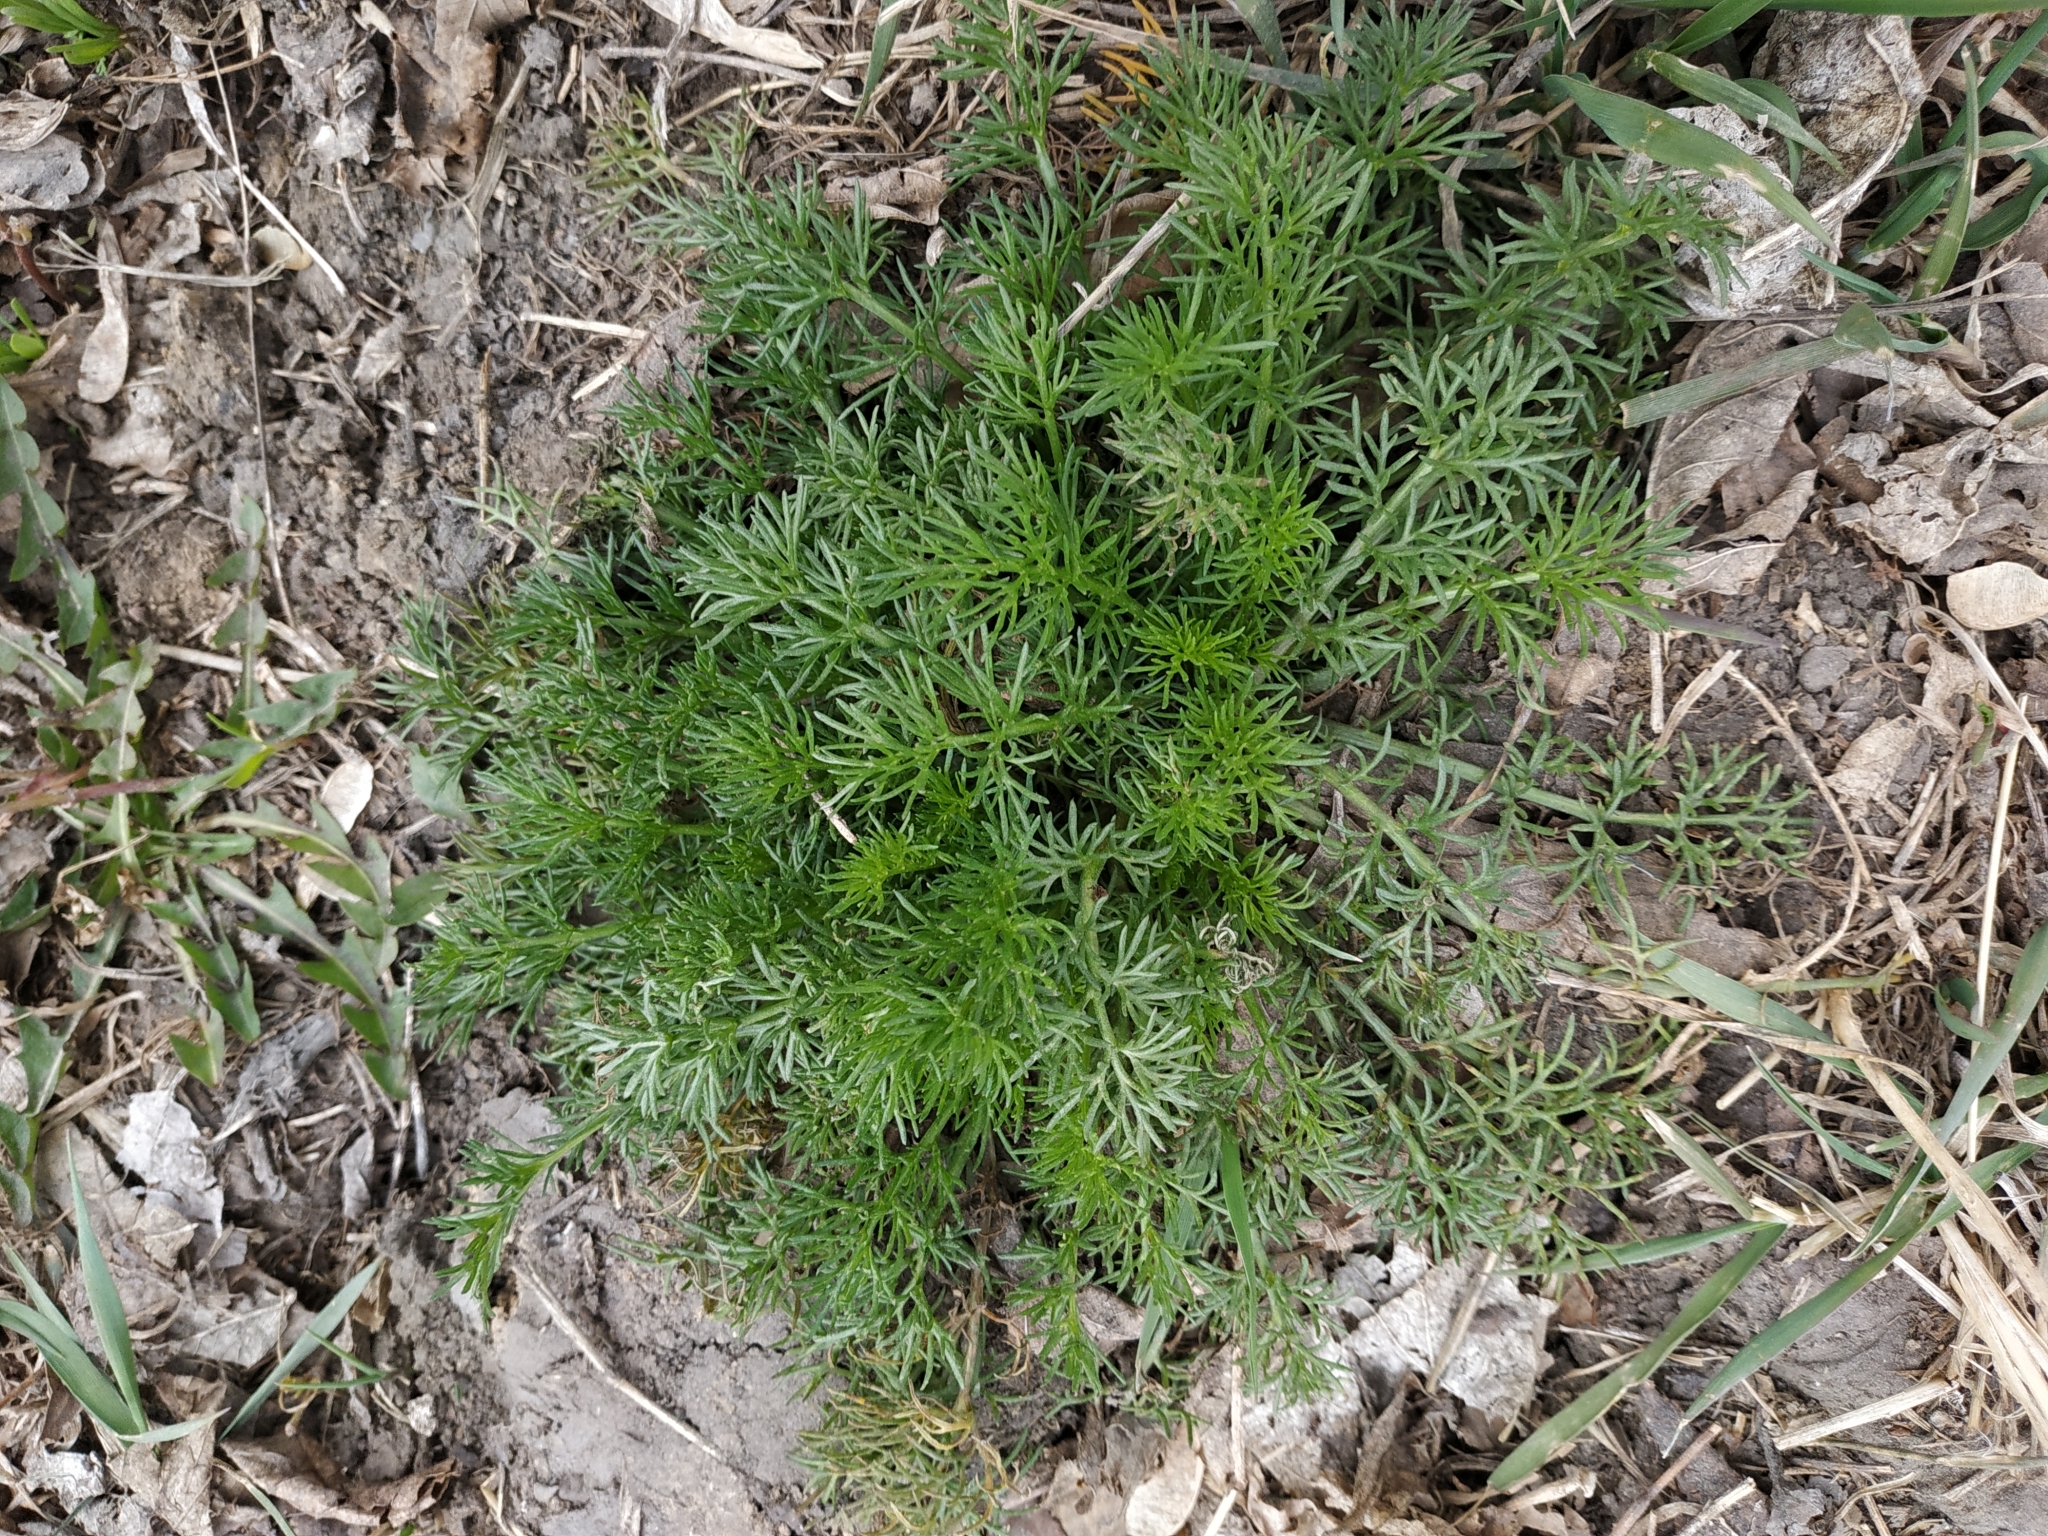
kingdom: Plantae
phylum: Tracheophyta
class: Magnoliopsida
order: Asterales
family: Asteraceae
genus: Tripleurospermum
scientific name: Tripleurospermum inodorum
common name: Scentless mayweed
